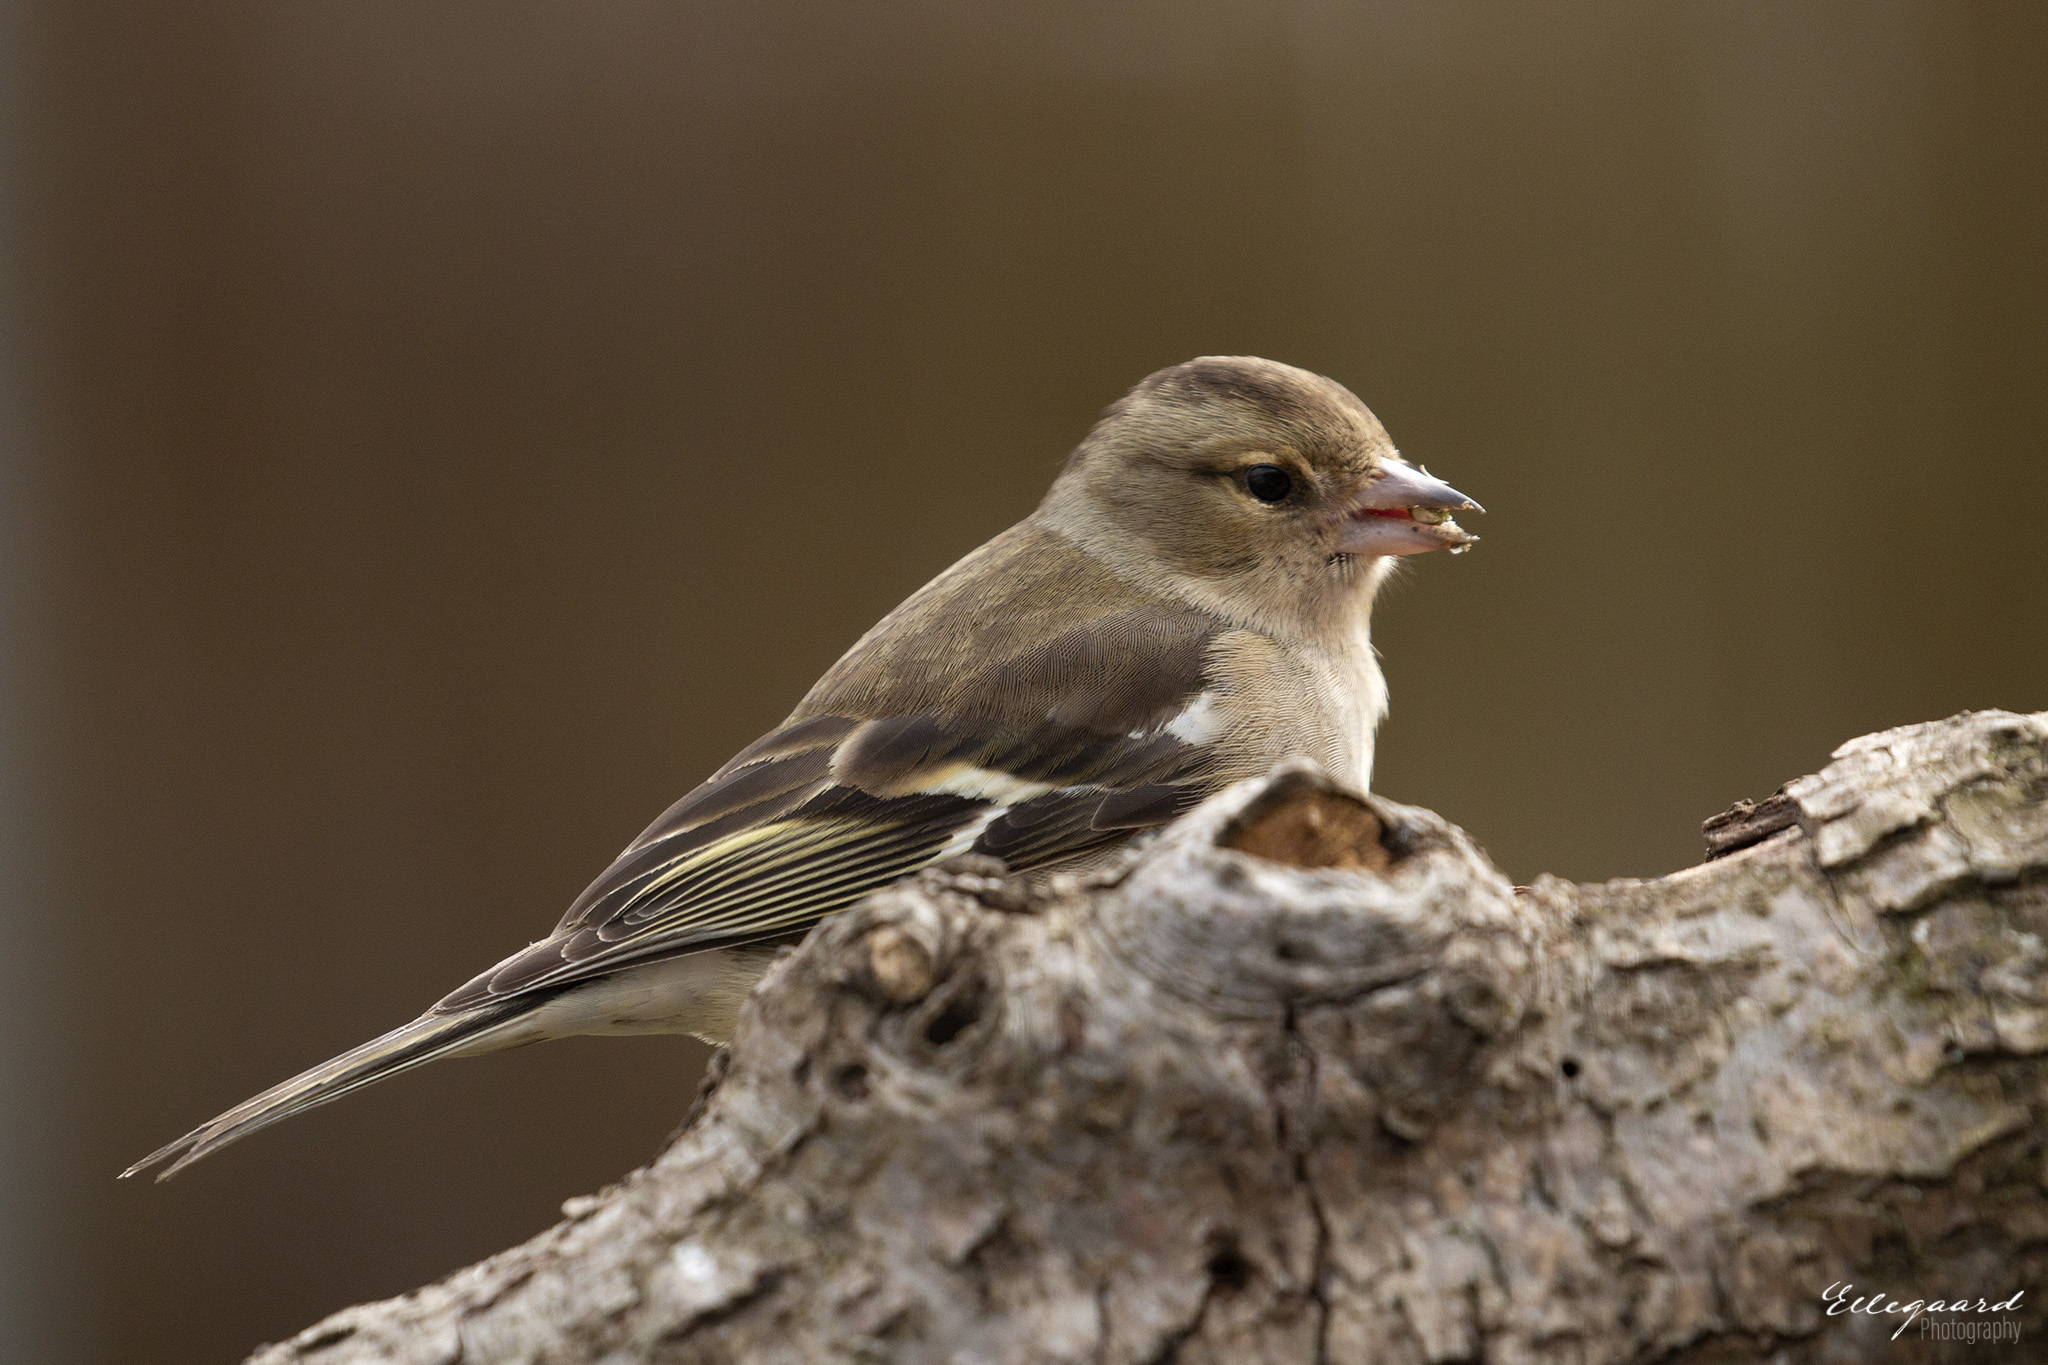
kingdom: Animalia
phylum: Chordata
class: Aves
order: Passeriformes
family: Fringillidae
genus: Fringilla
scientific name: Fringilla coelebs
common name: Common chaffinch
